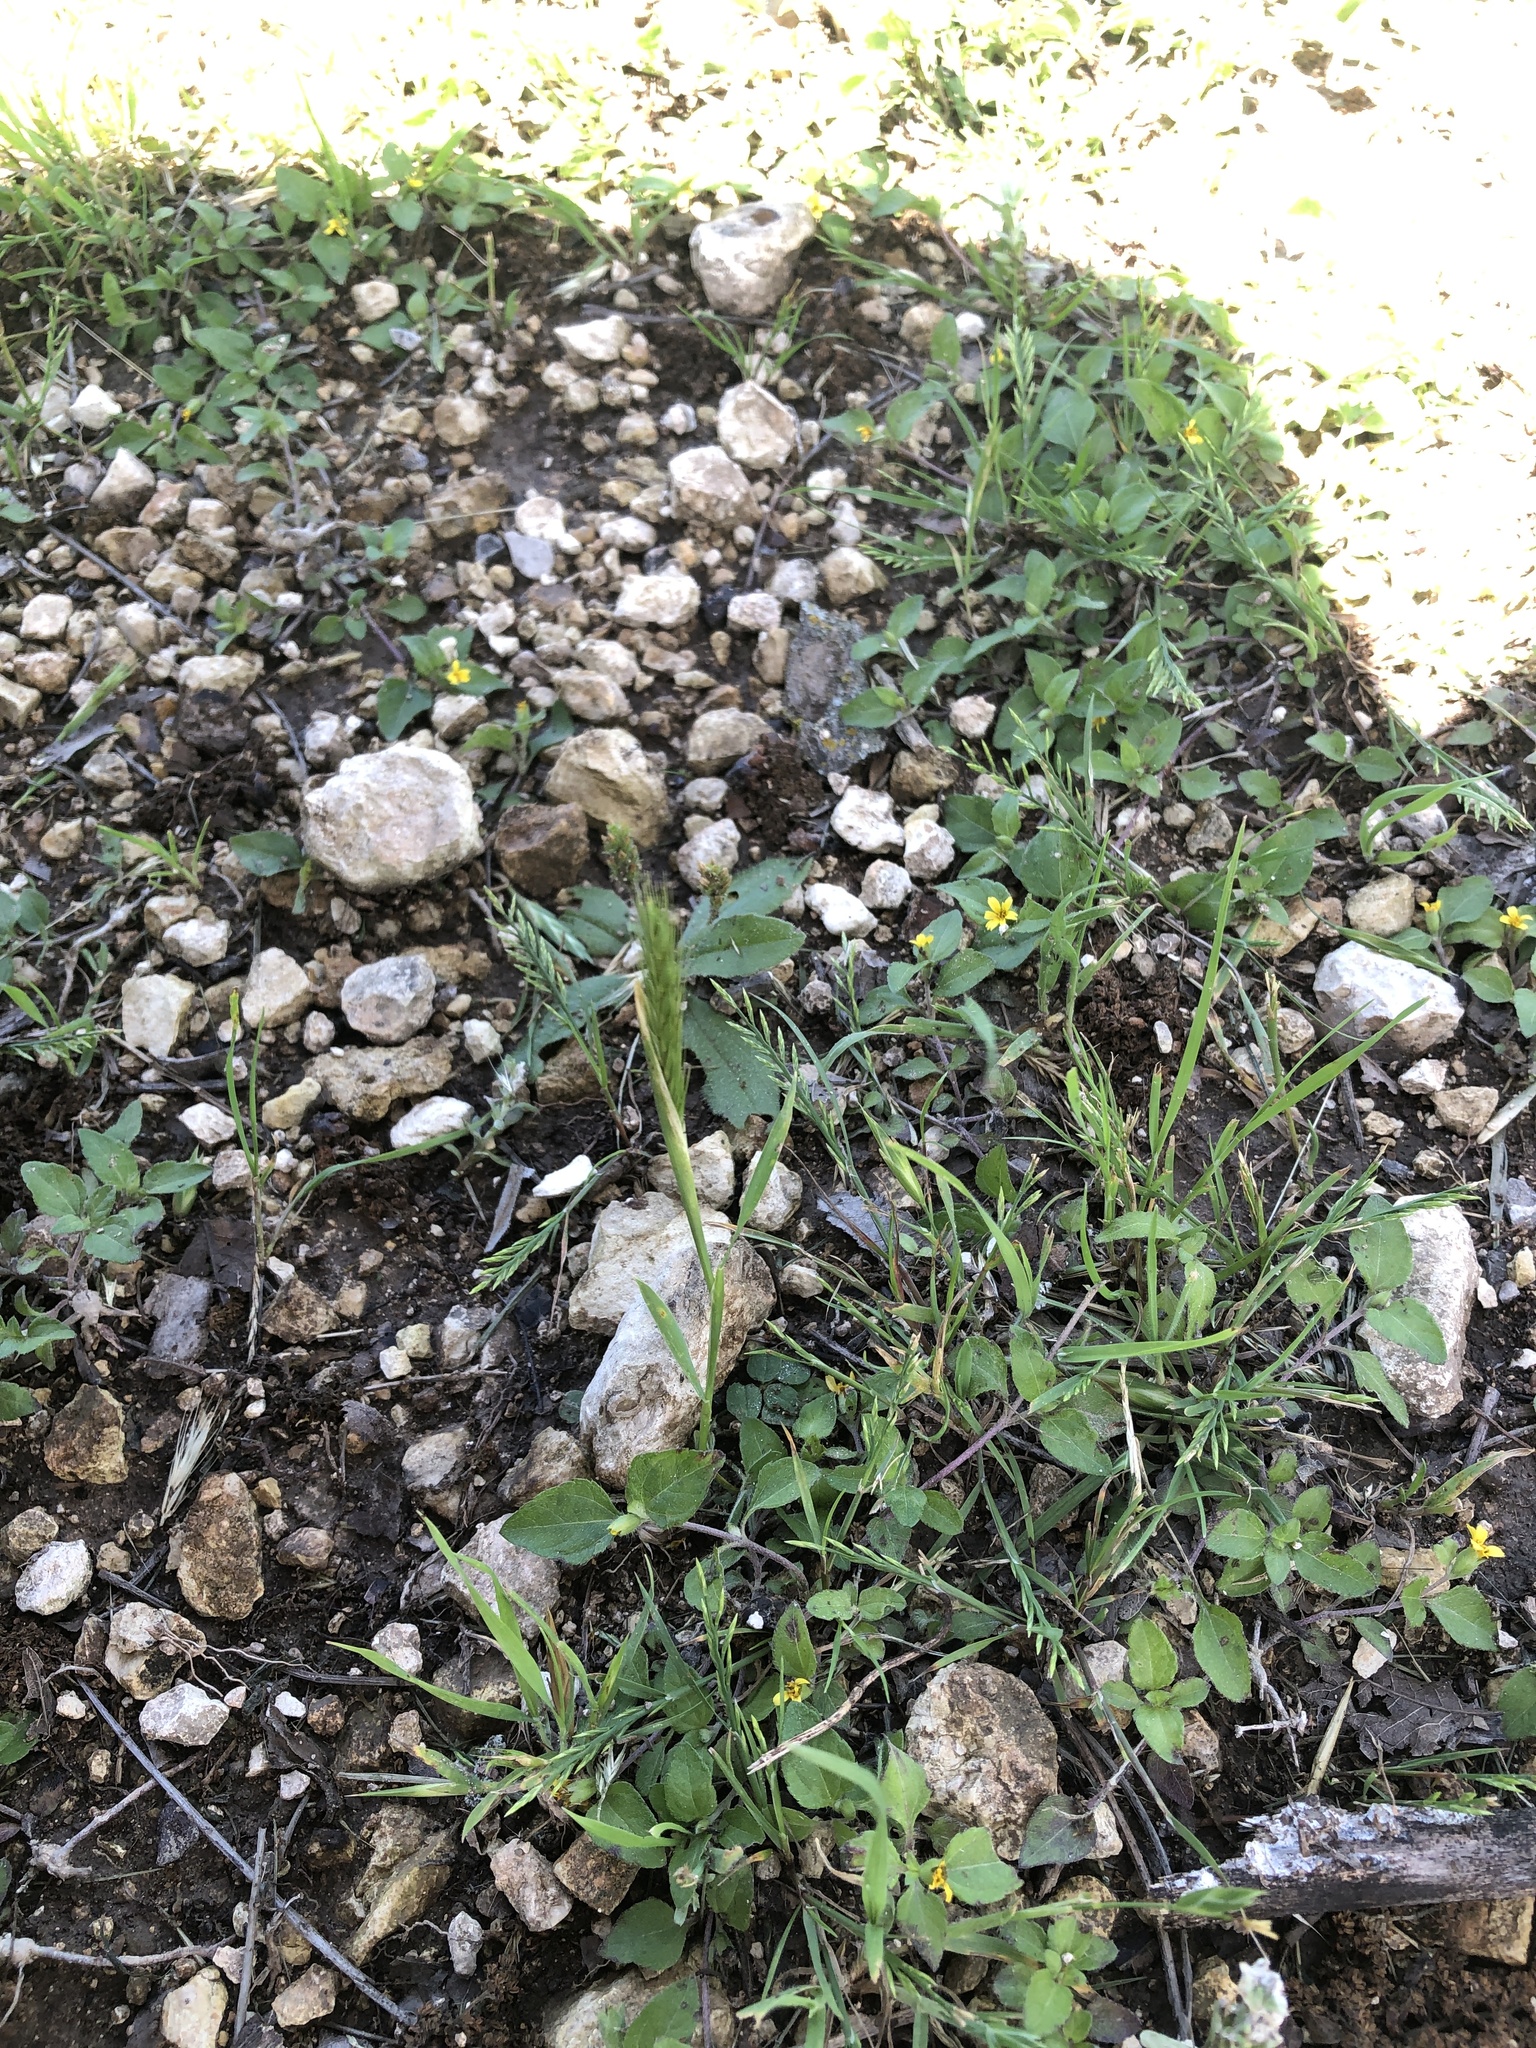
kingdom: Plantae
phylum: Tracheophyta
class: Liliopsida
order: Poales
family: Poaceae
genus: Hordeum
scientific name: Hordeum pusillum
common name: Little barley
